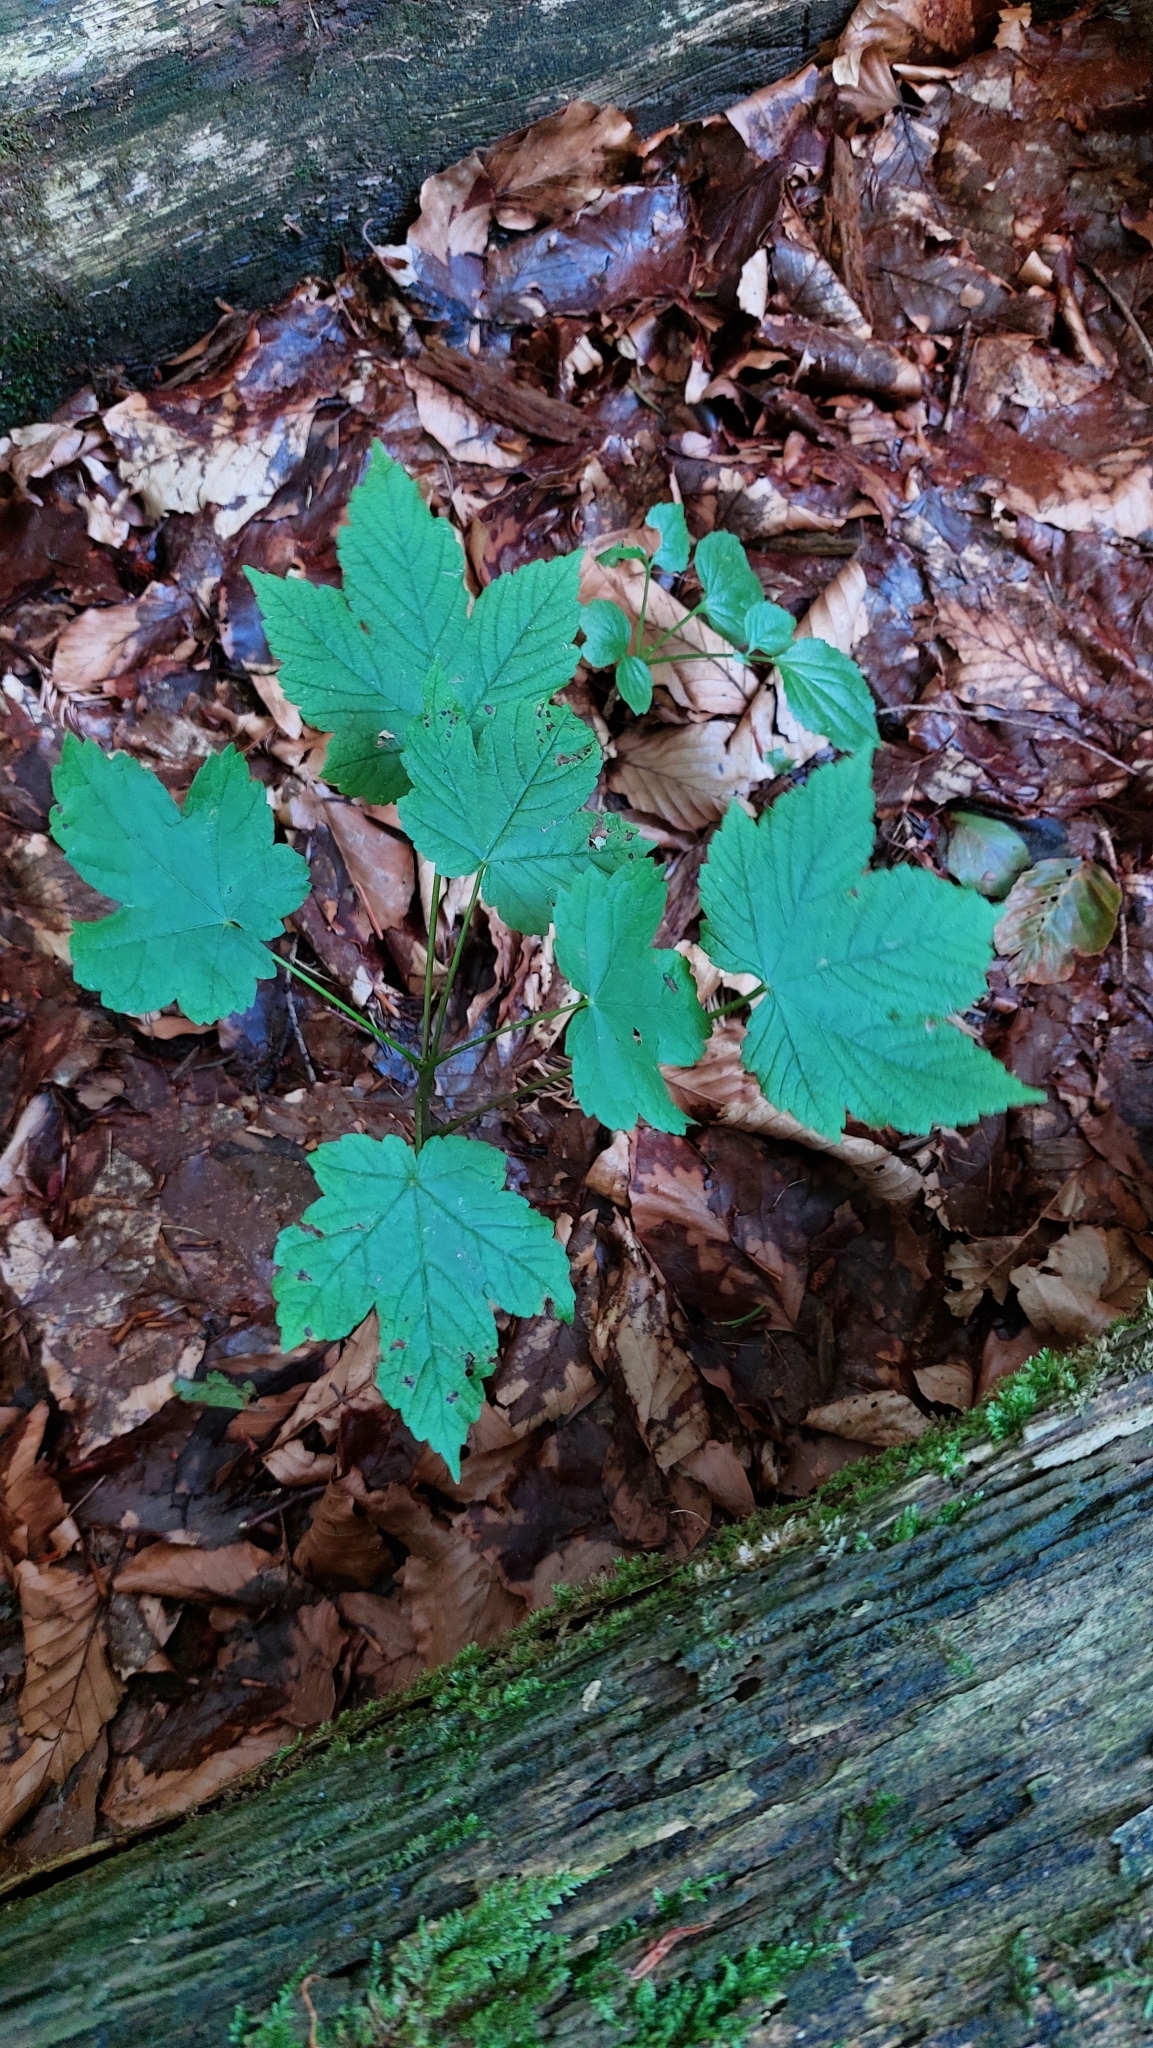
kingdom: Plantae
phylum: Tracheophyta
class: Magnoliopsida
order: Sapindales
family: Sapindaceae
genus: Acer
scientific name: Acer pseudoplatanus
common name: Sycamore
